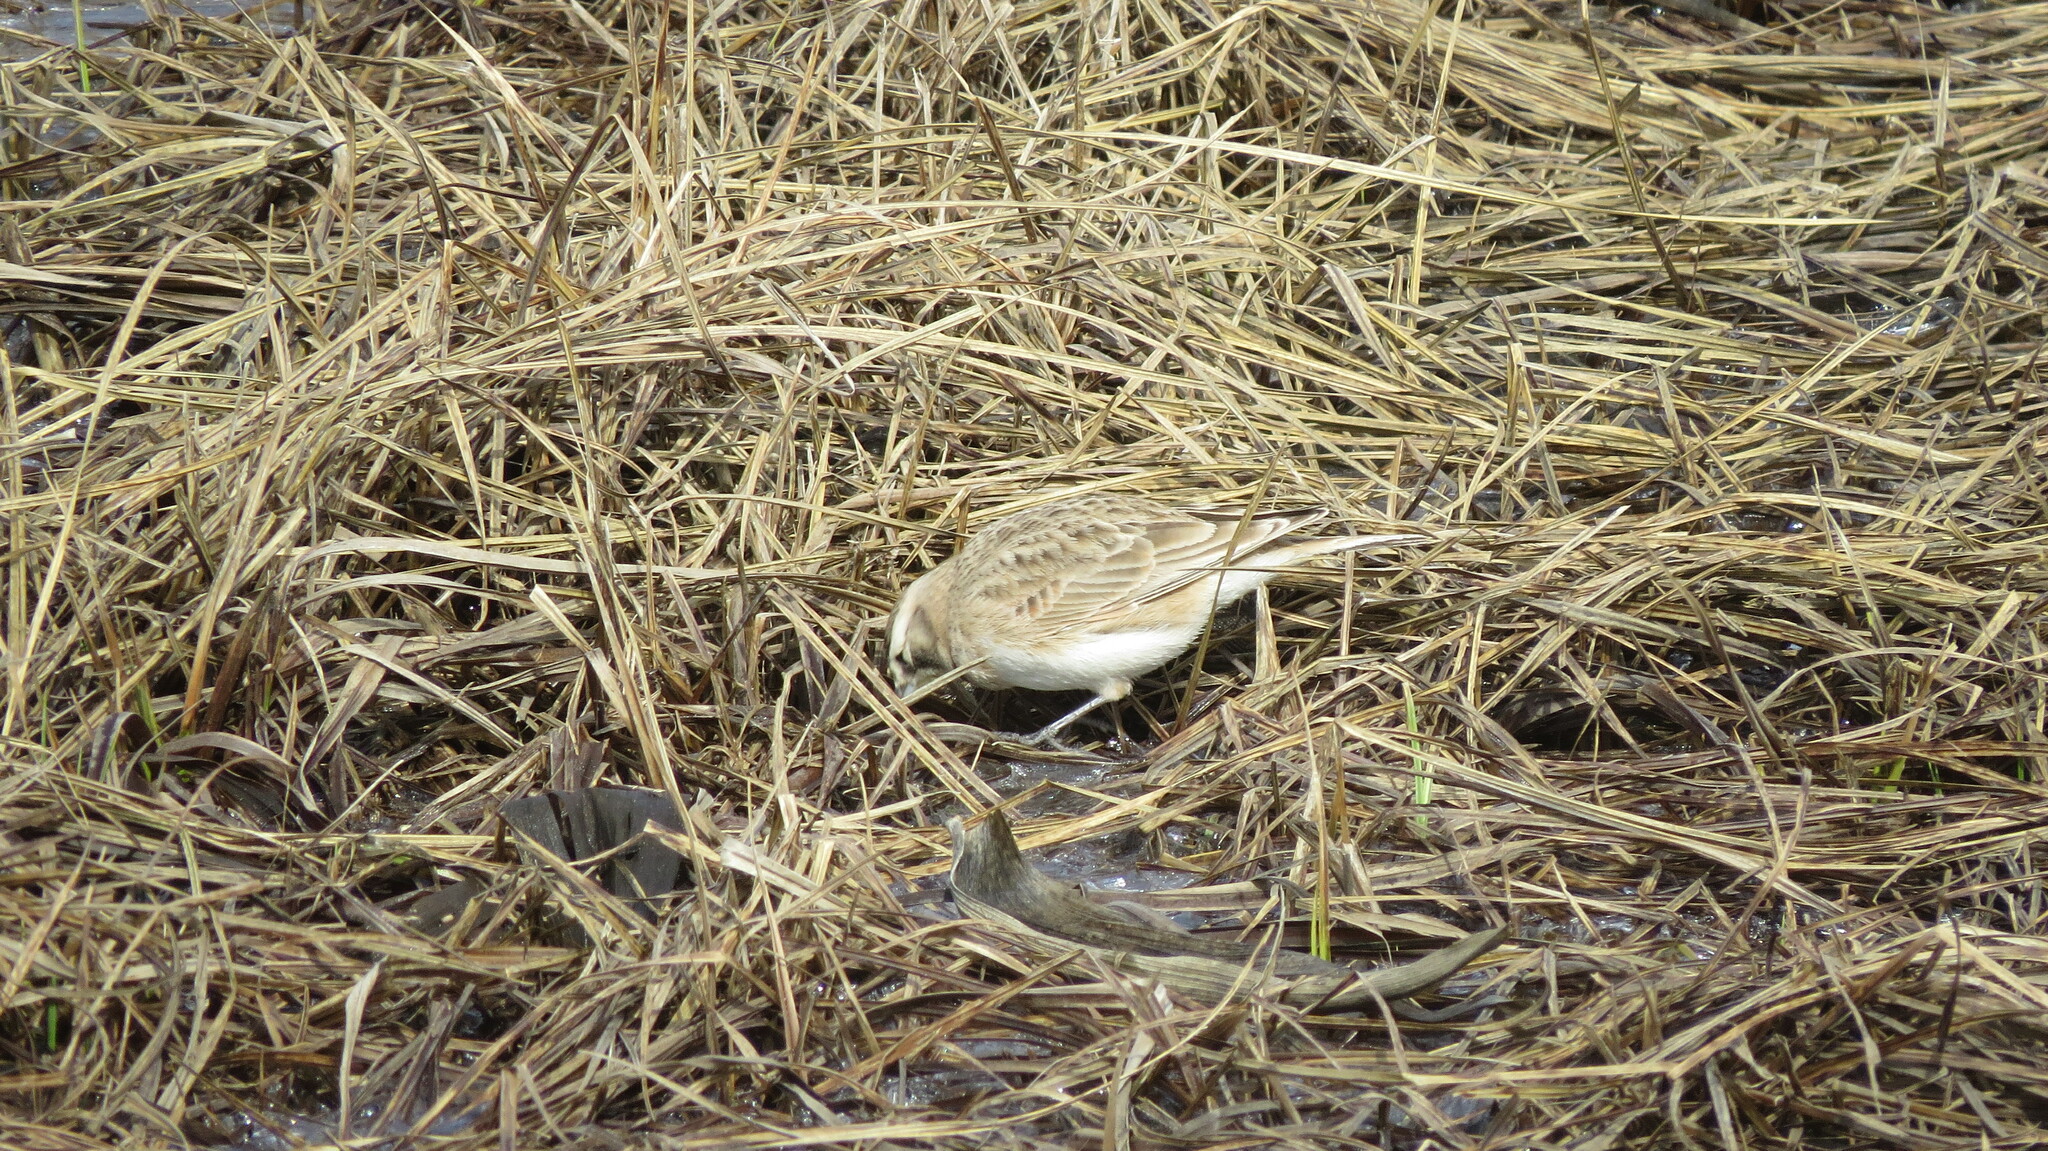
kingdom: Animalia
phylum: Chordata
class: Aves
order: Passeriformes
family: Alaudidae
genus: Eremophila
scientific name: Eremophila alpestris
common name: Horned lark
